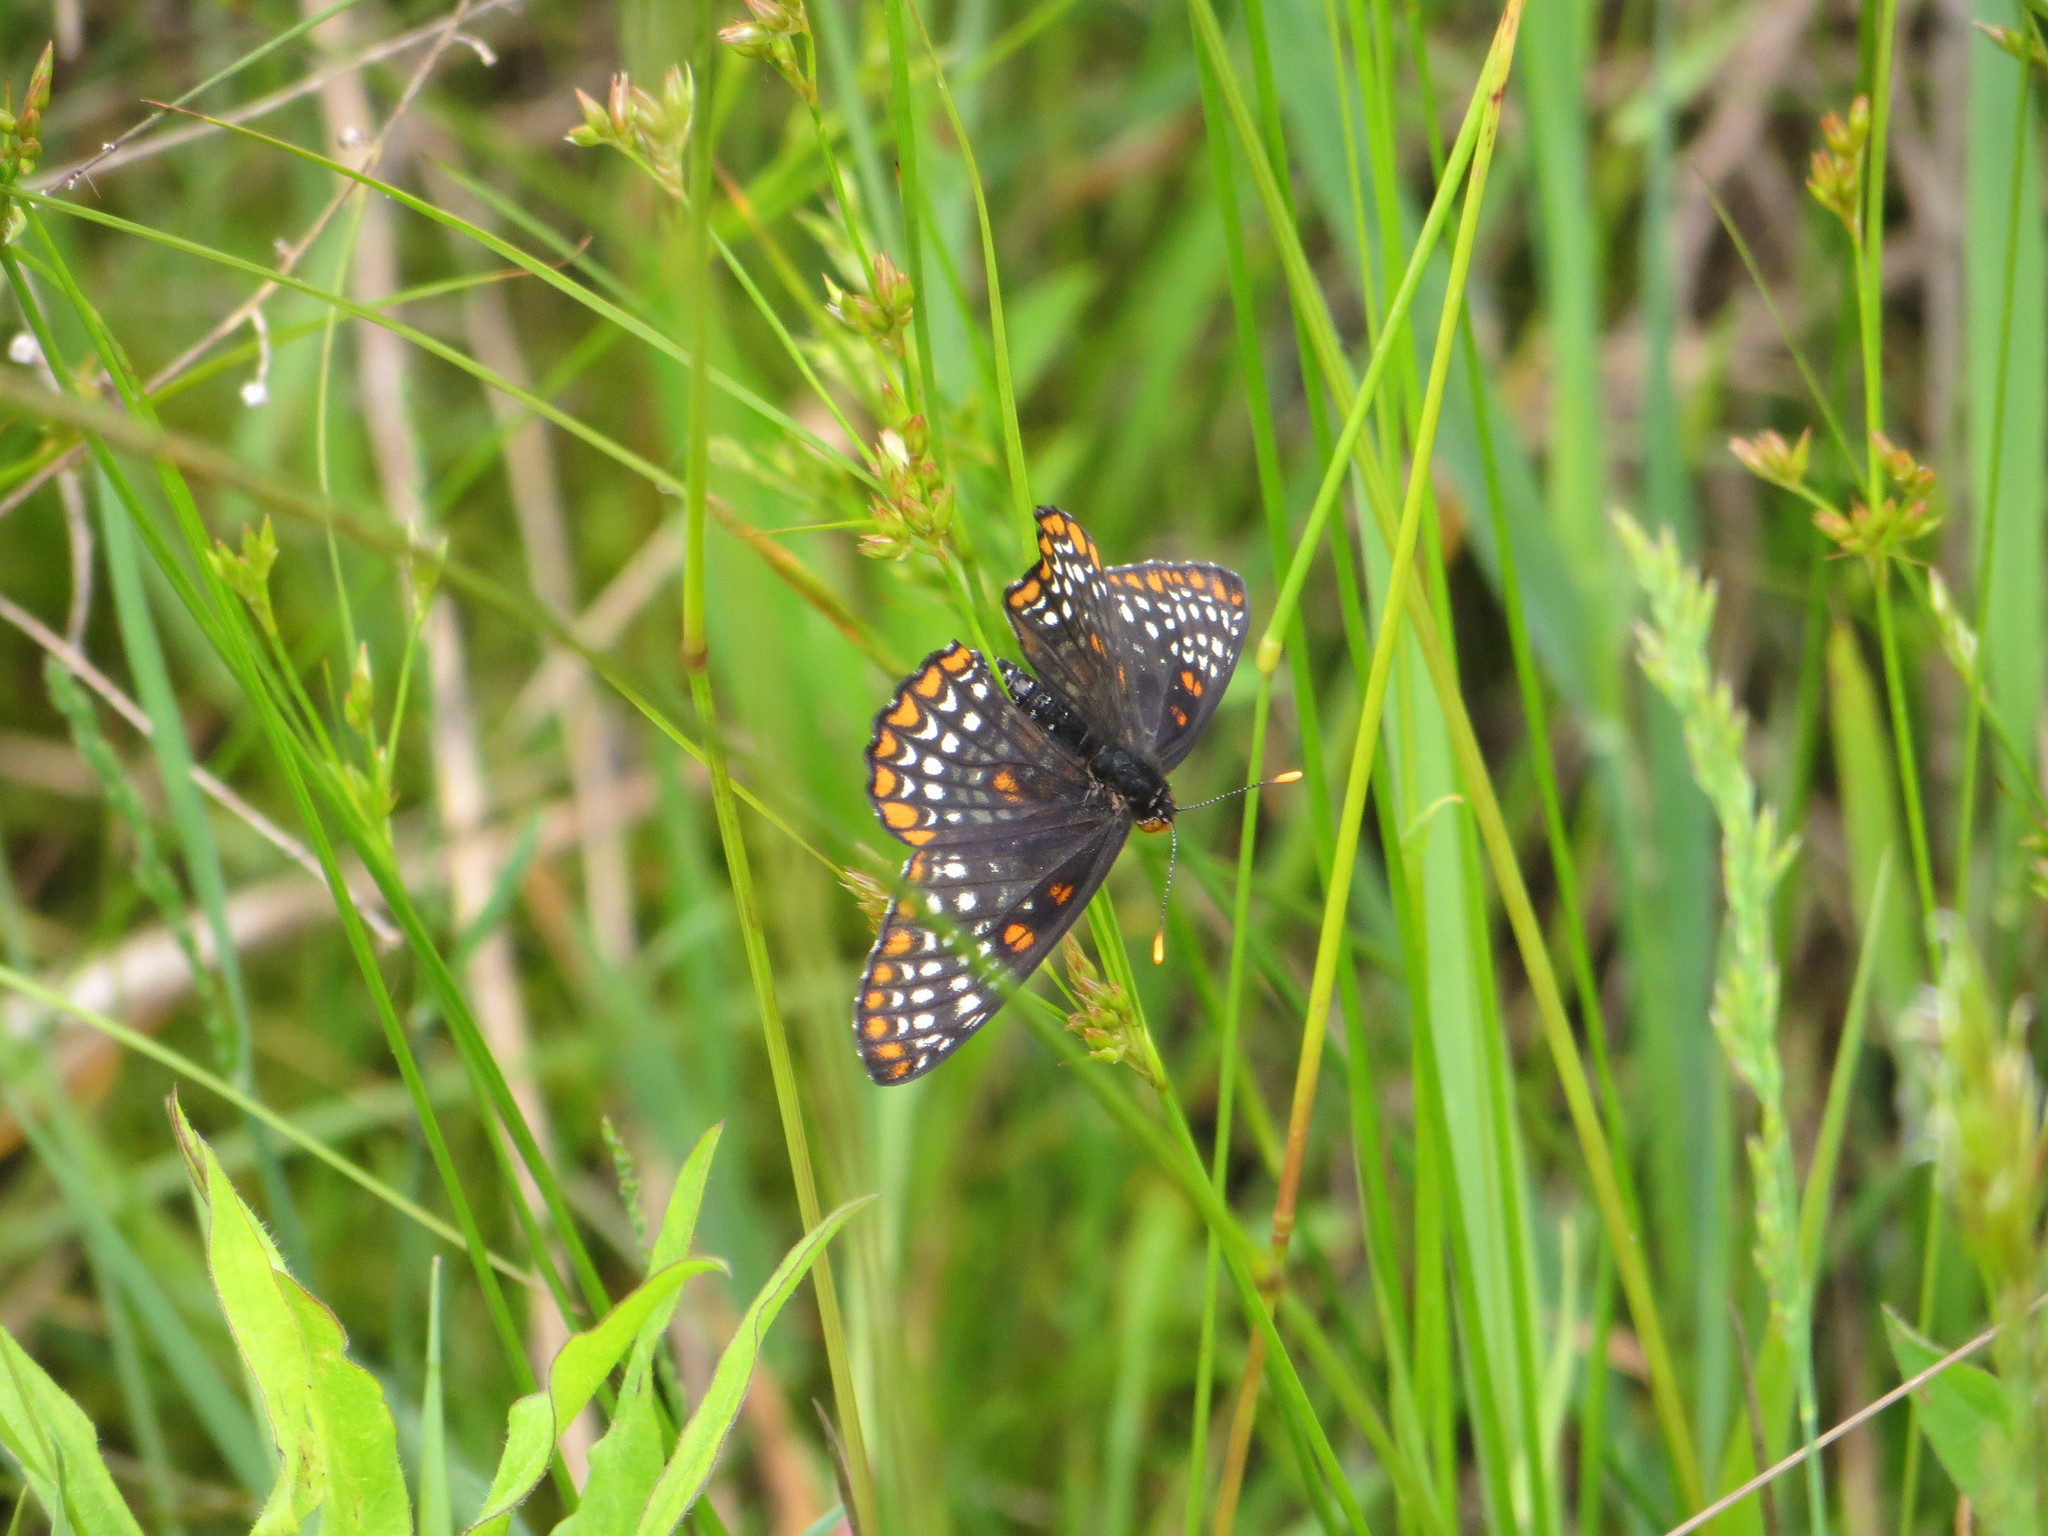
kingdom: Animalia
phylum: Arthropoda
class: Insecta
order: Lepidoptera
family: Nymphalidae
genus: Euphydryas
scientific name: Euphydryas phaeton
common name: Baltimore checkerspot
